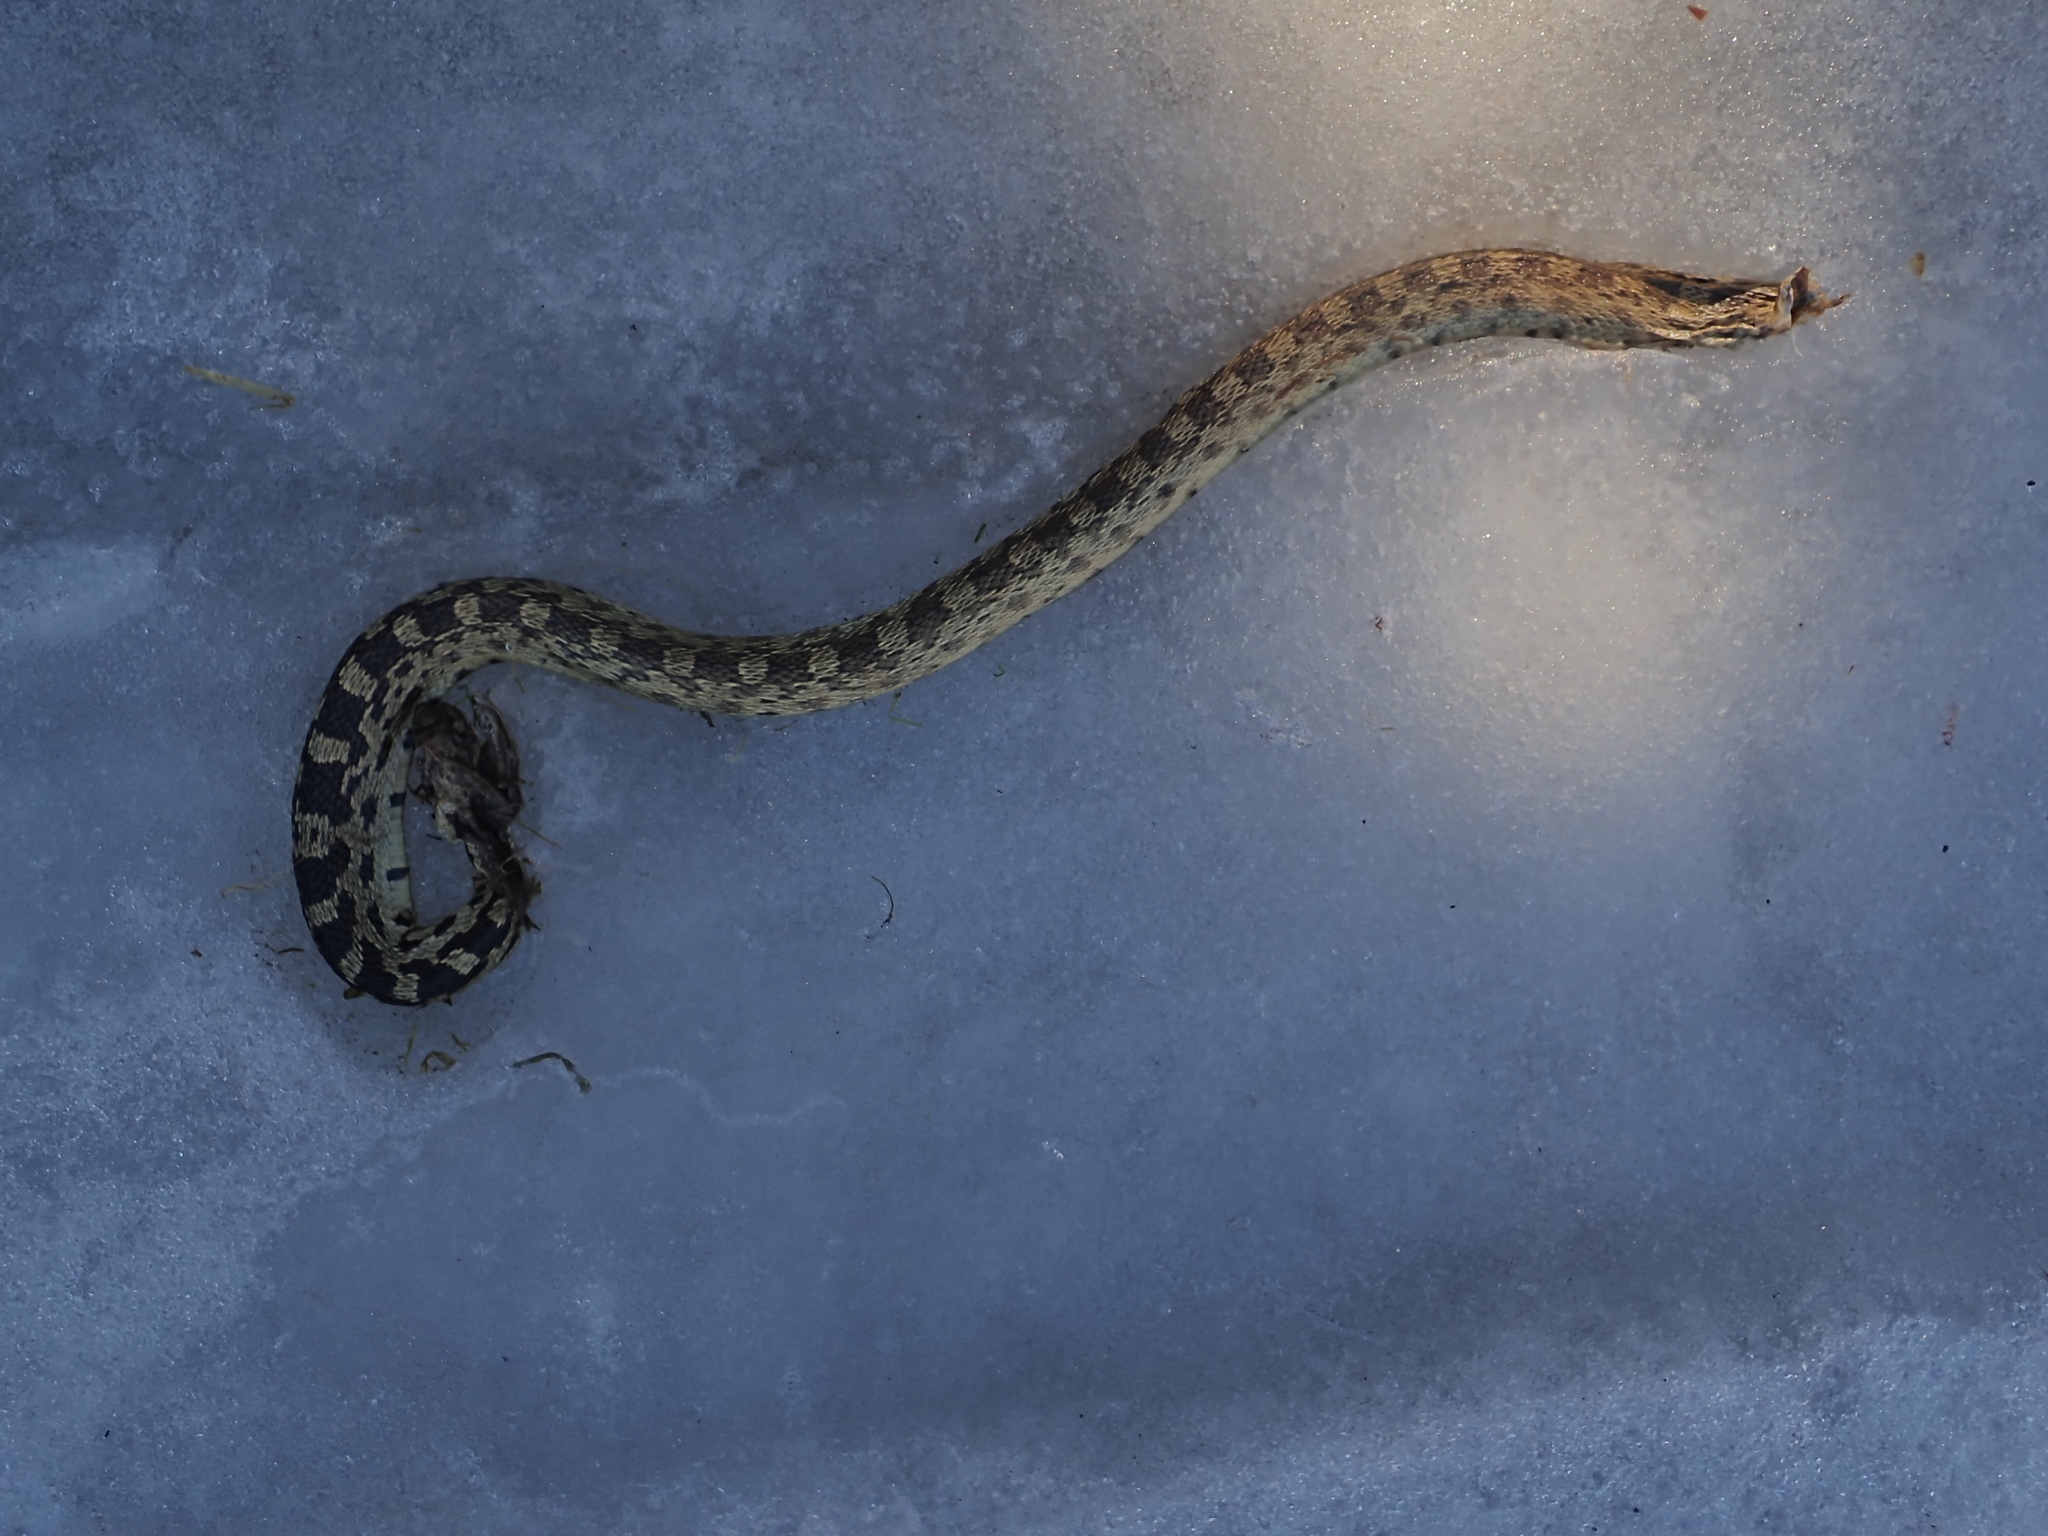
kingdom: Animalia
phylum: Chordata
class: Squamata
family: Colubridae
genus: Pituophis
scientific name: Pituophis catenifer
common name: Gopher snake
